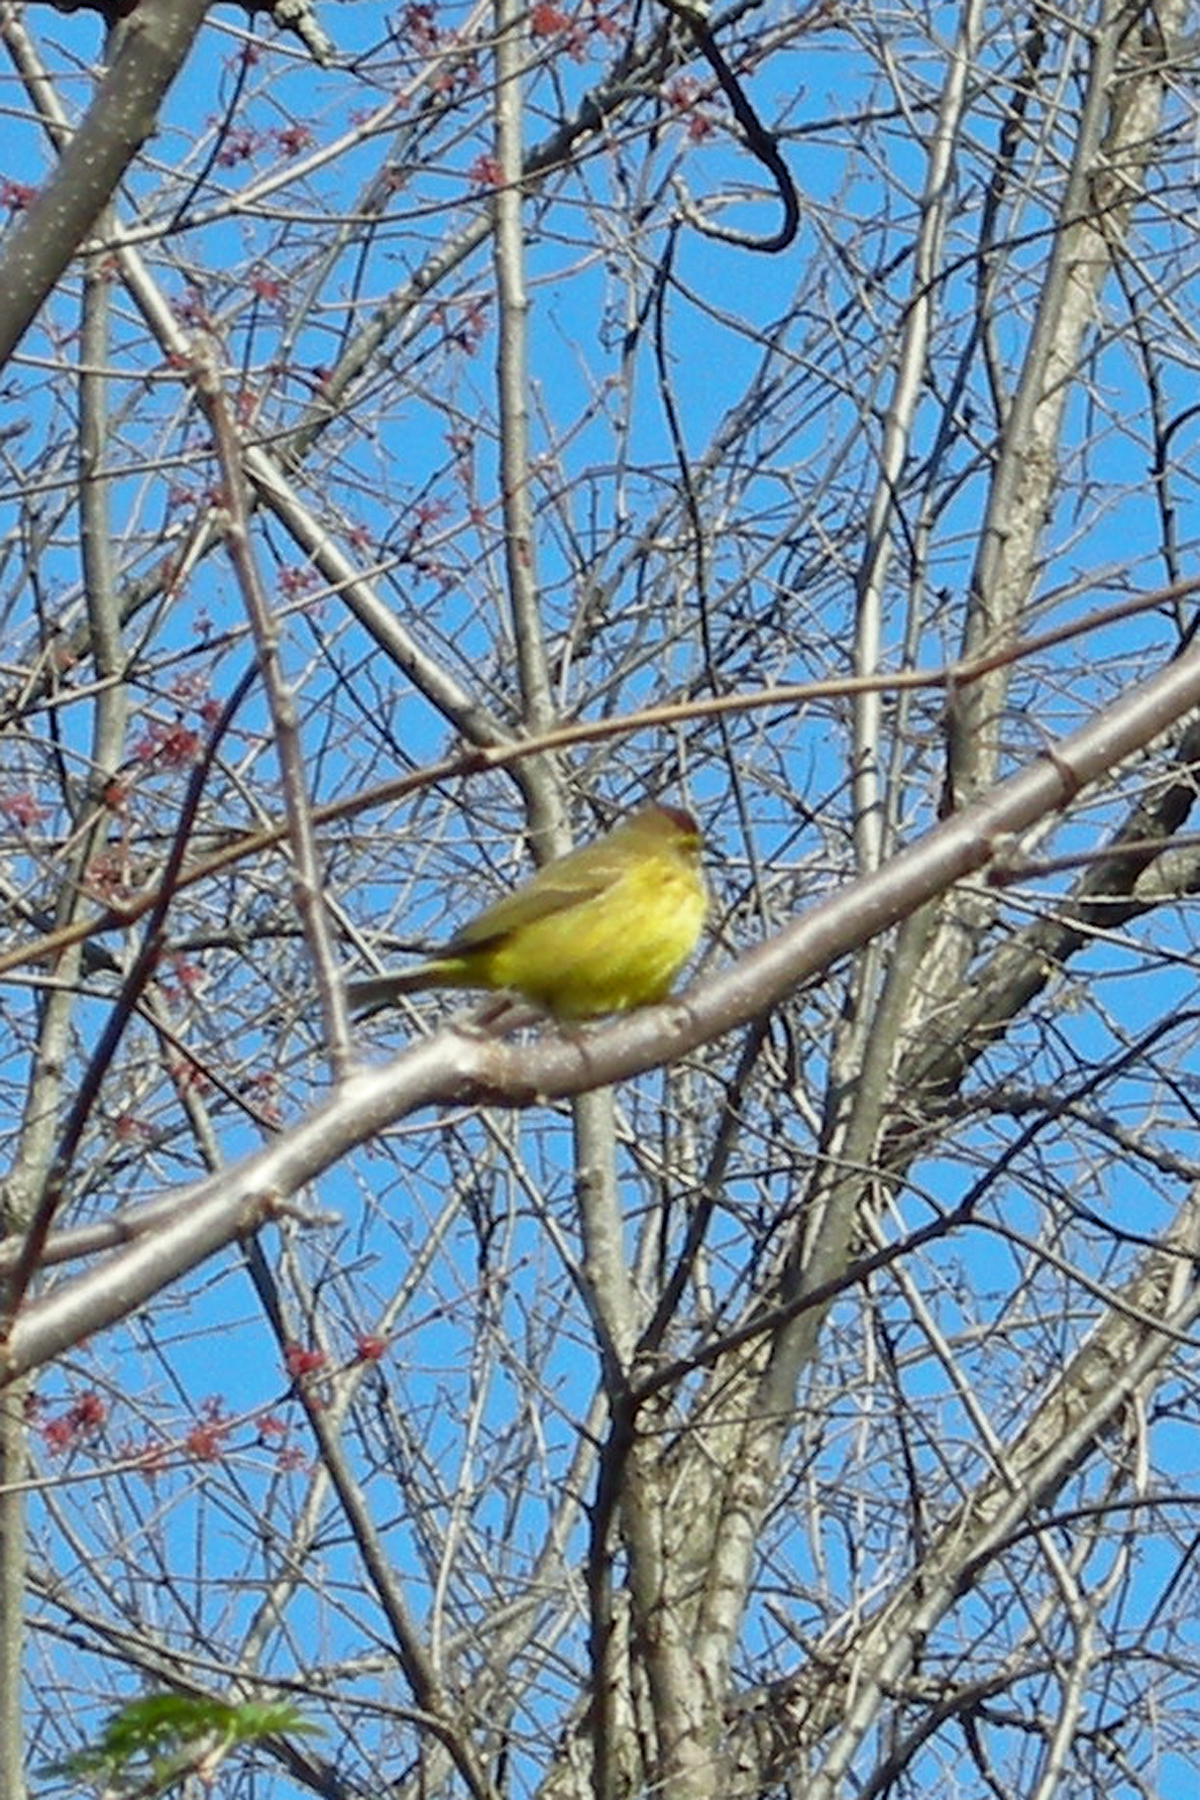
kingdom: Animalia
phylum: Chordata
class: Aves
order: Passeriformes
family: Parulidae
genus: Setophaga
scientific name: Setophaga palmarum
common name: Palm warbler
